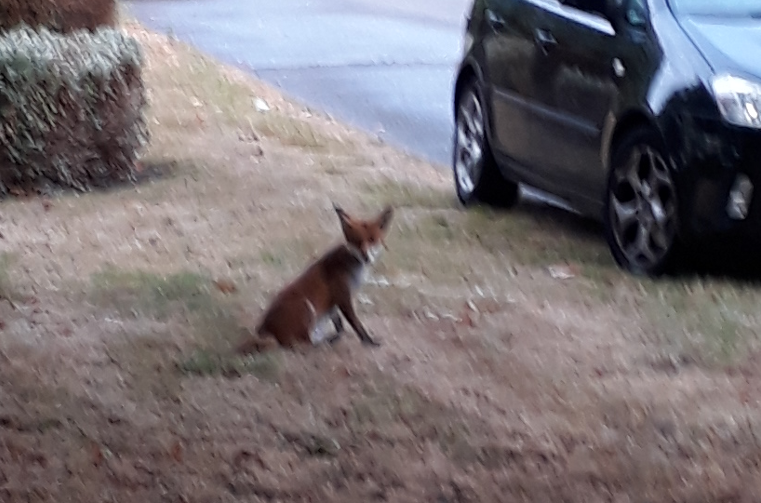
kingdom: Animalia
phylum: Chordata
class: Mammalia
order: Carnivora
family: Canidae
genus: Vulpes
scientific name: Vulpes vulpes
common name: Red fox
